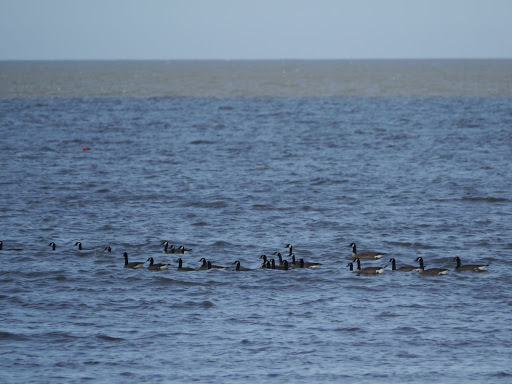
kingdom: Animalia
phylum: Chordata
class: Aves
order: Anseriformes
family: Anatidae
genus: Branta
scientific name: Branta canadensis
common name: Canada goose
